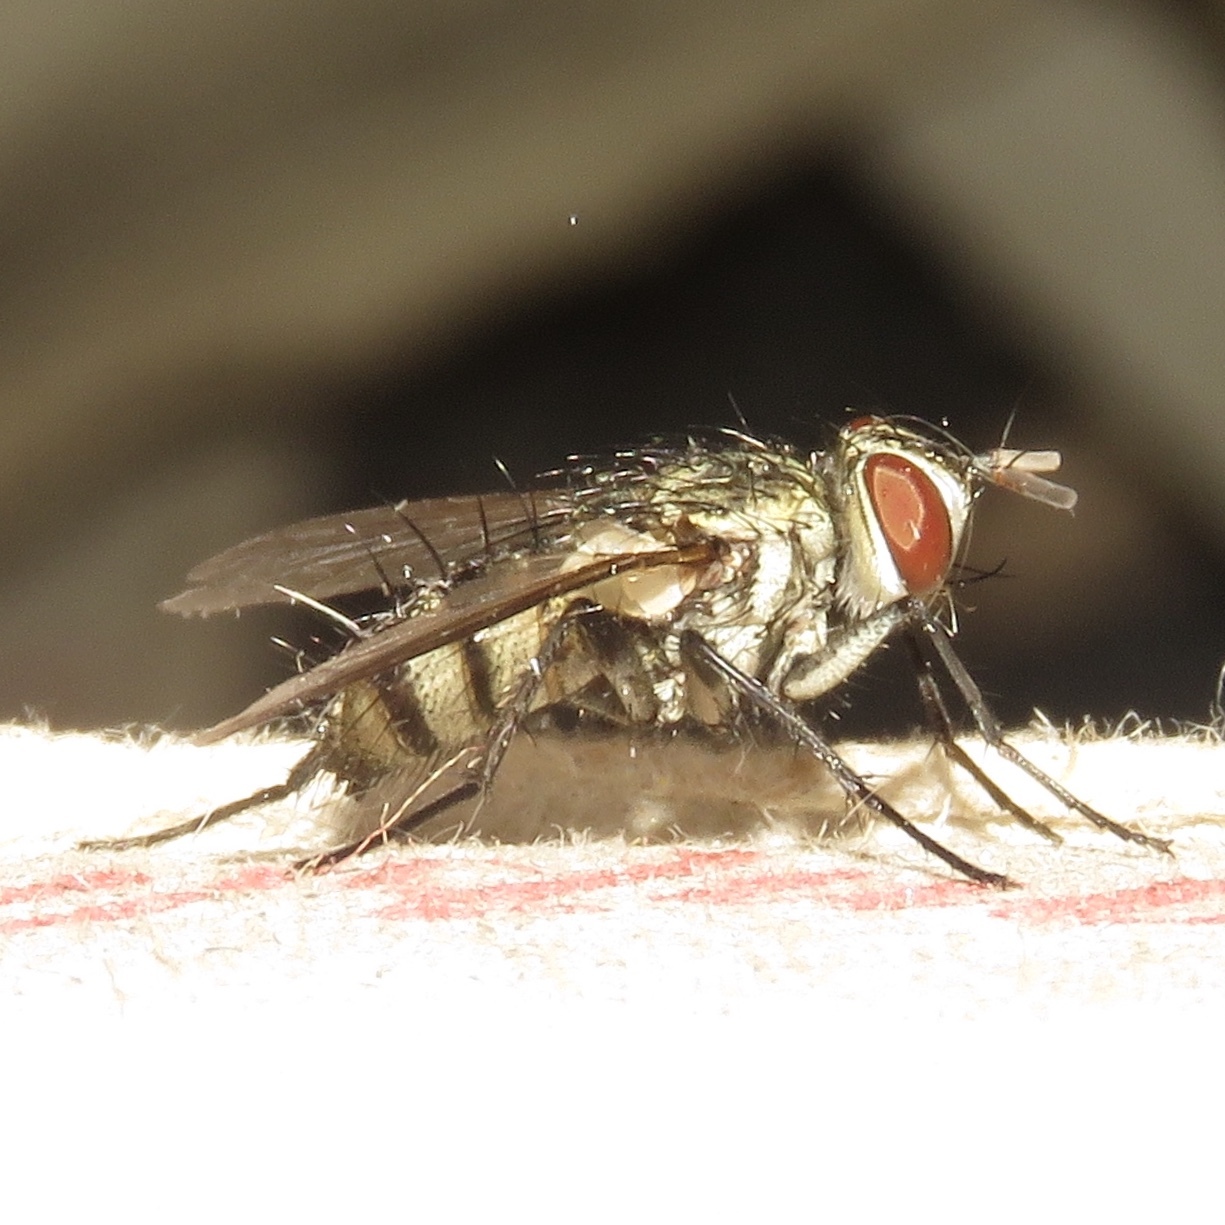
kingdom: Animalia
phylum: Arthropoda
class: Insecta
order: Diptera
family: Tachinidae
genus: Calolydella
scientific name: Calolydella lathami
